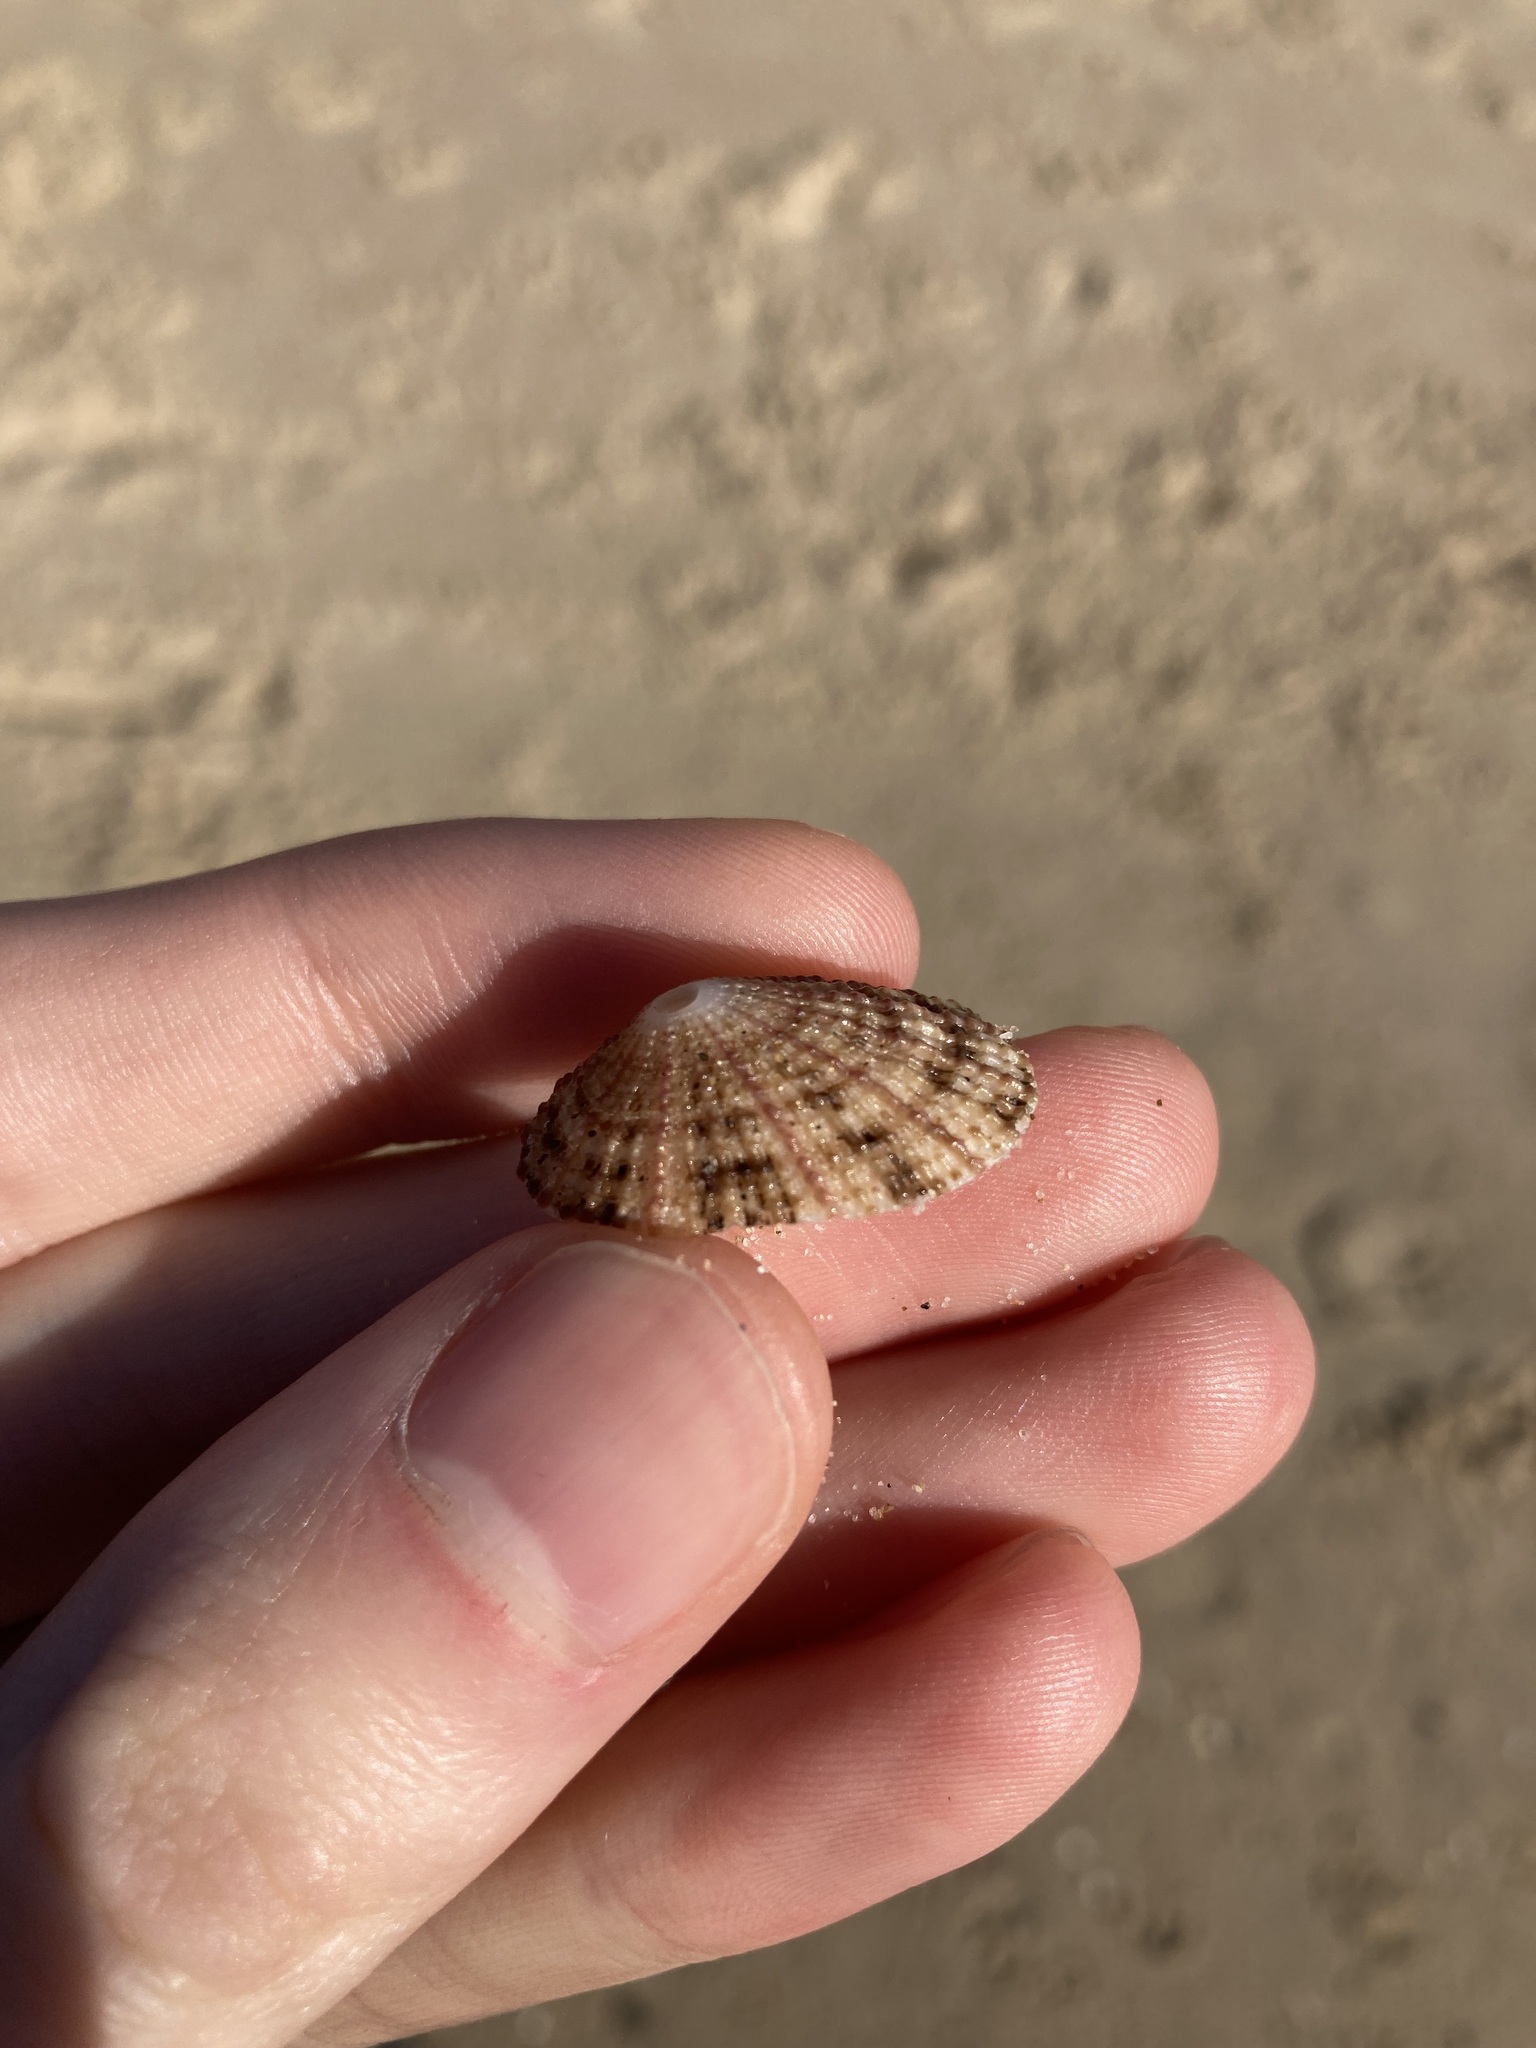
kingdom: Animalia
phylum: Mollusca
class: Gastropoda
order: Lepetellida
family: Fissurellidae
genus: Diodora
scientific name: Diodora lineata
